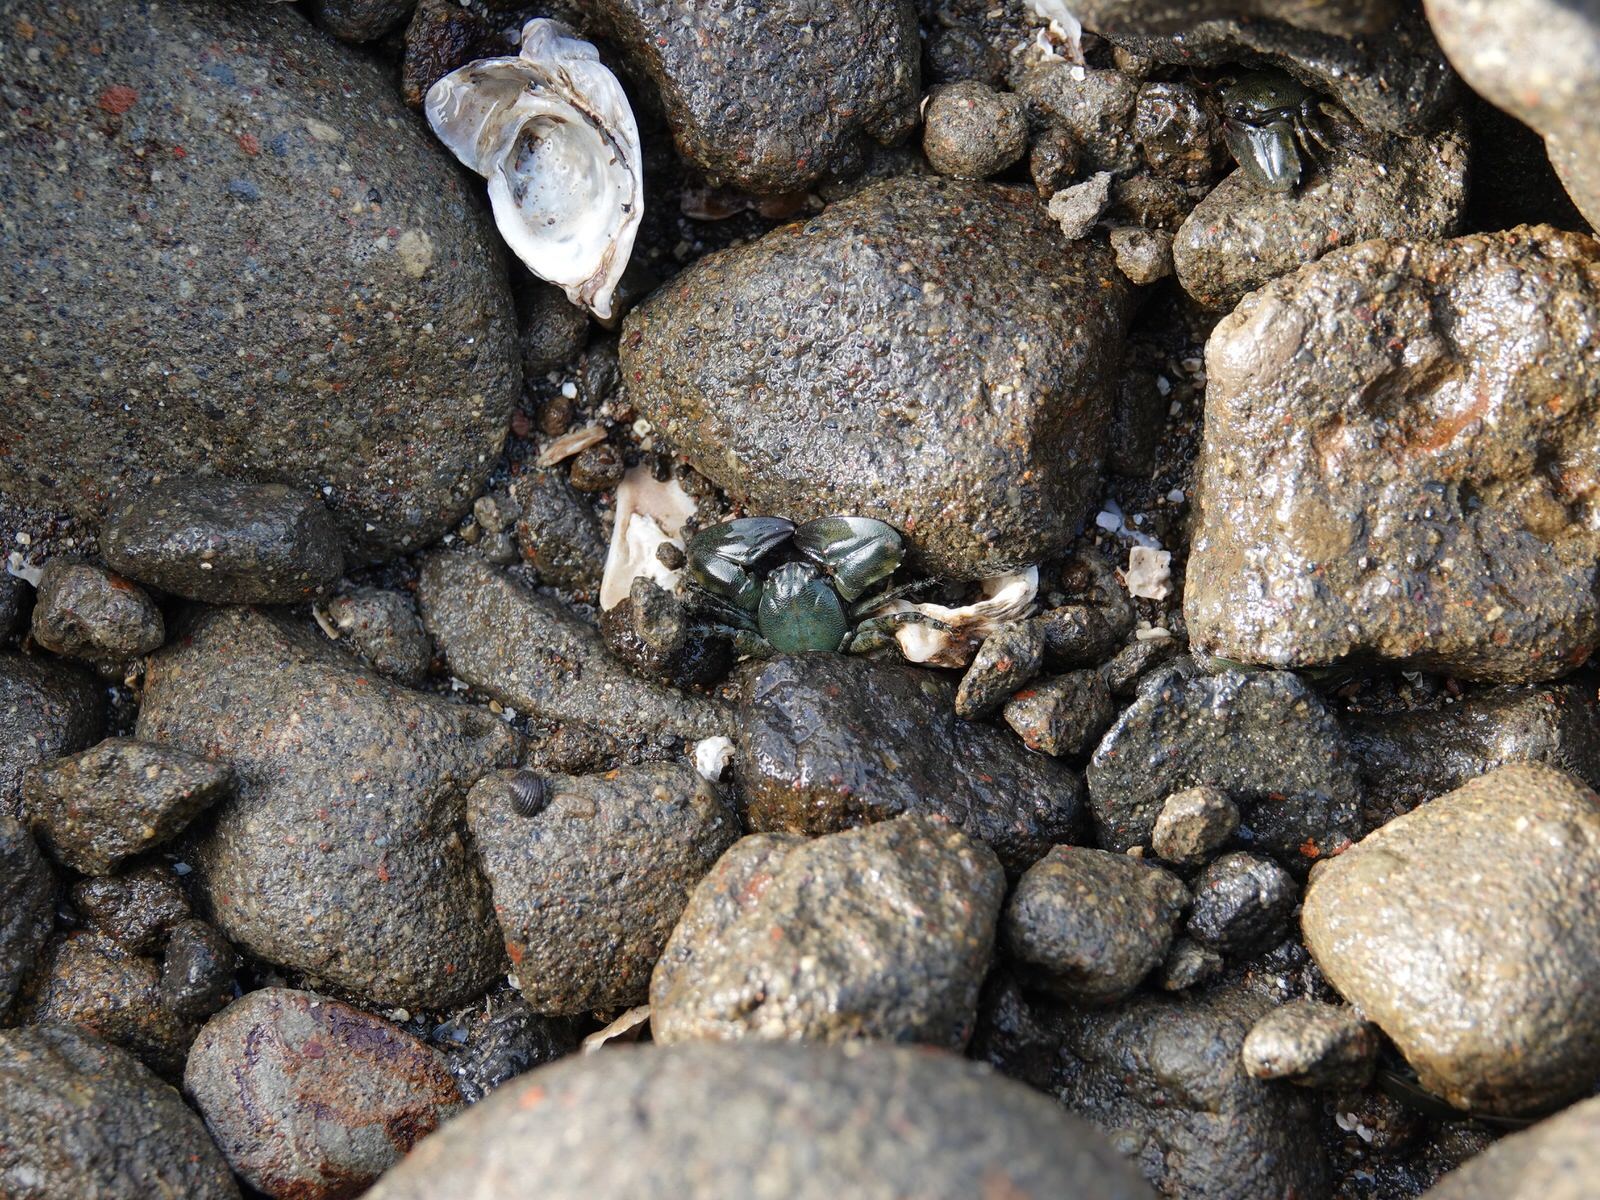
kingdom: Animalia
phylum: Arthropoda
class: Malacostraca
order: Decapoda
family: Porcellanidae
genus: Petrolisthes
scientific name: Petrolisthes elongatus
